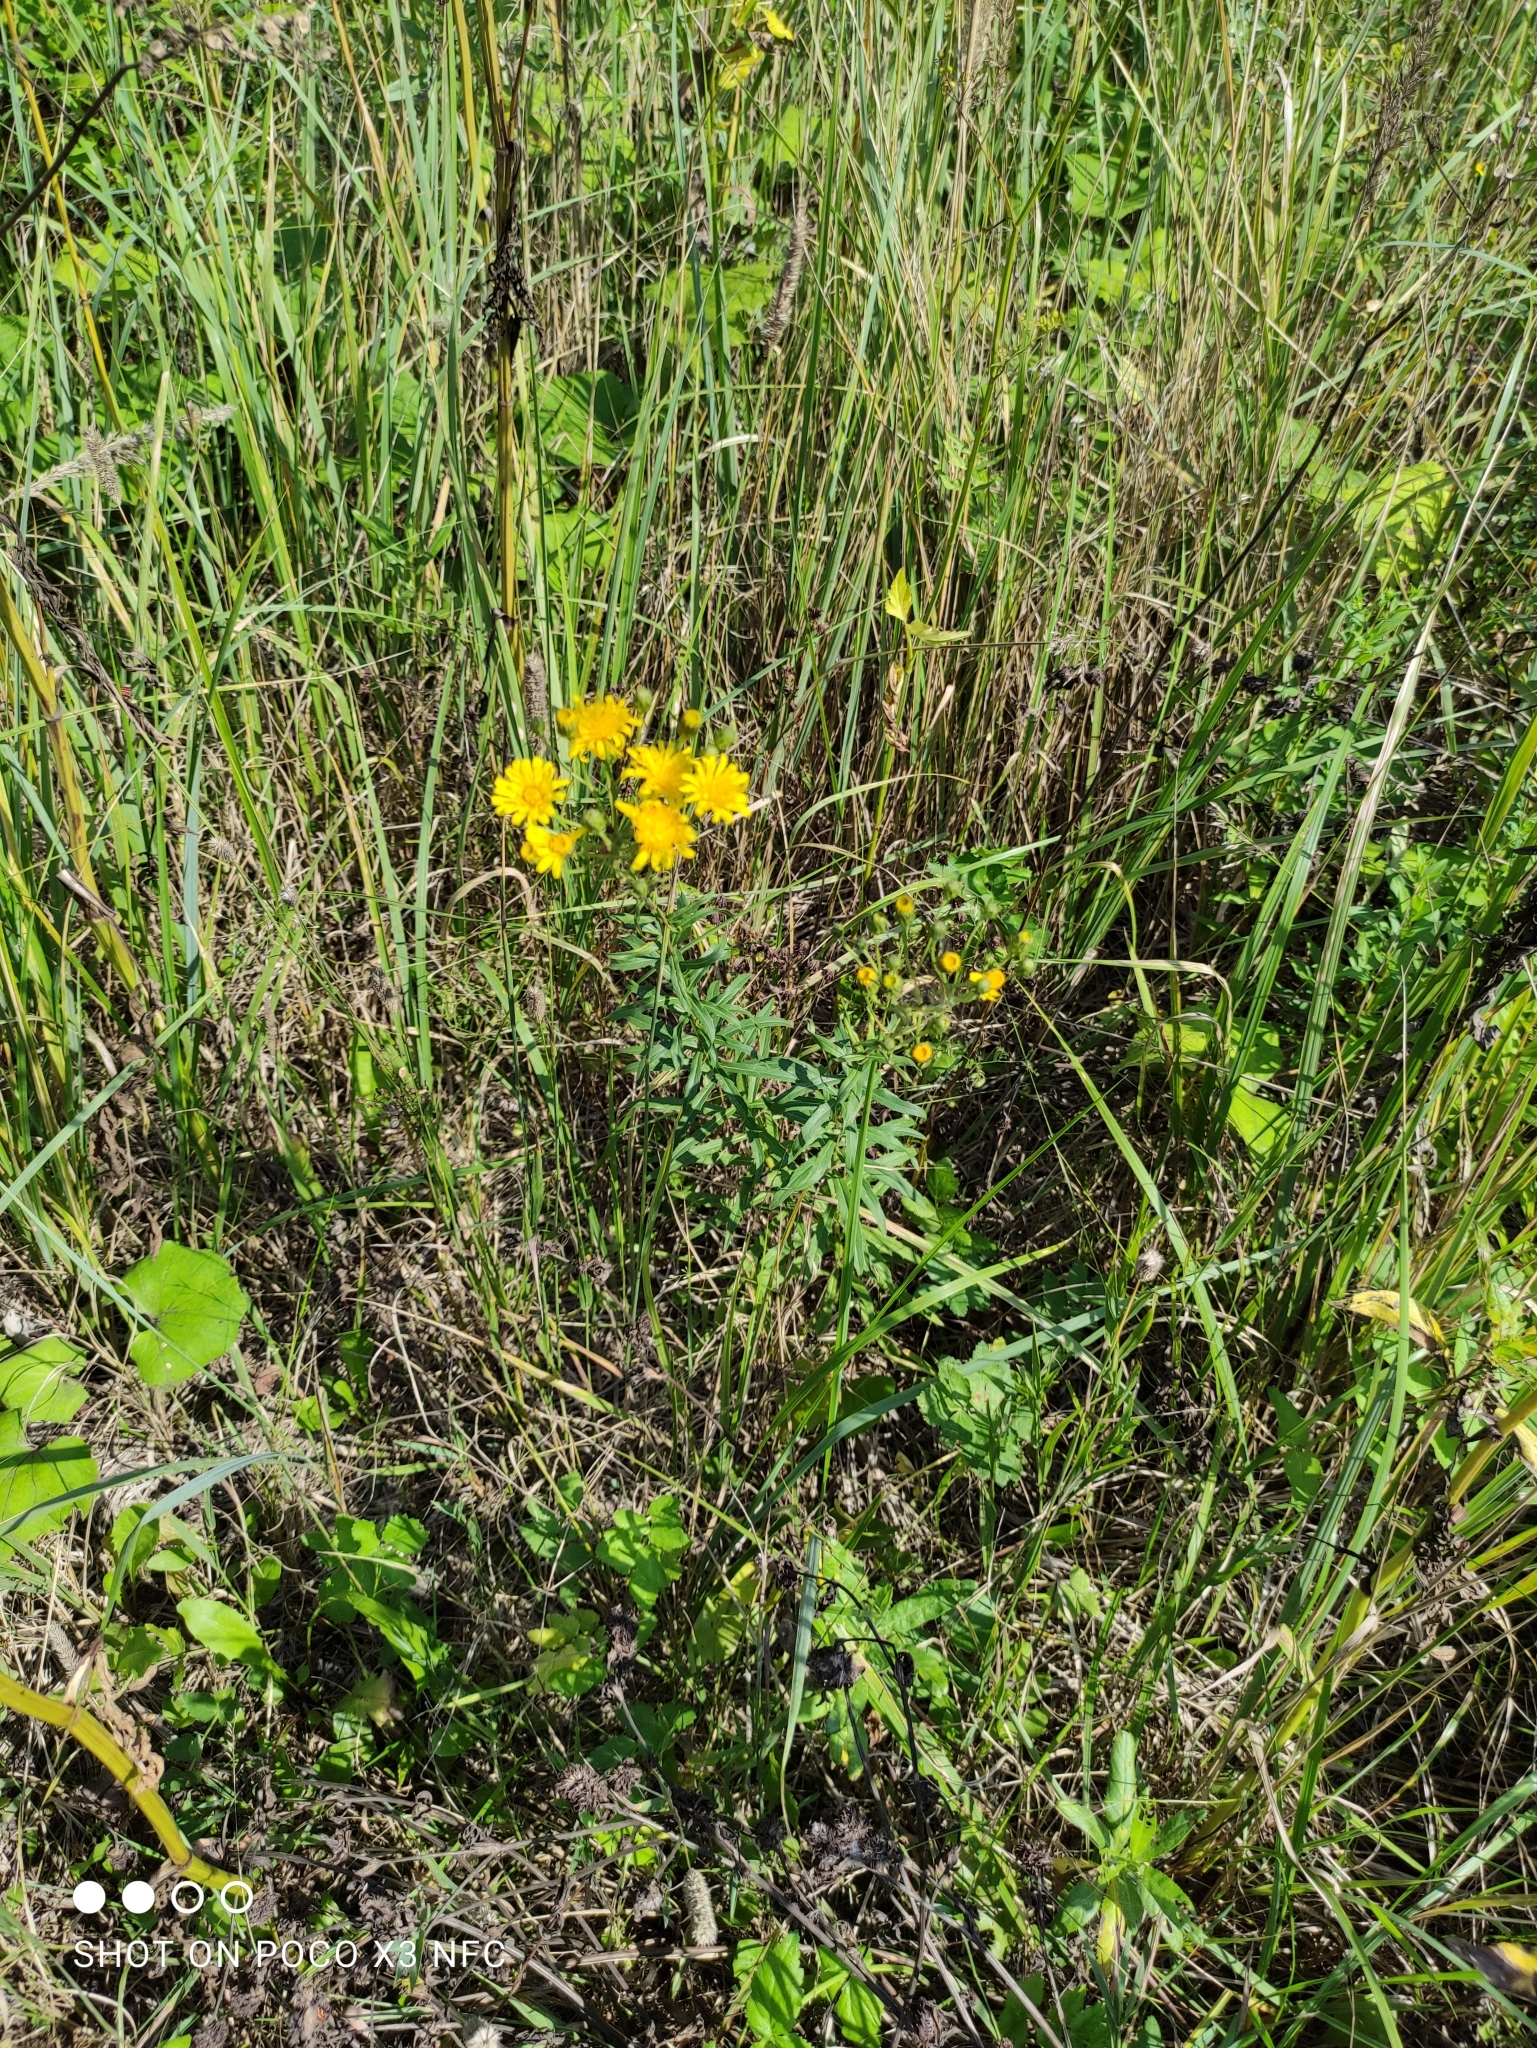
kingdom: Plantae
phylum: Tracheophyta
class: Magnoliopsida
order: Asterales
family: Asteraceae
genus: Hieracium
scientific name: Hieracium umbellatum
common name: Northern hawkweed
